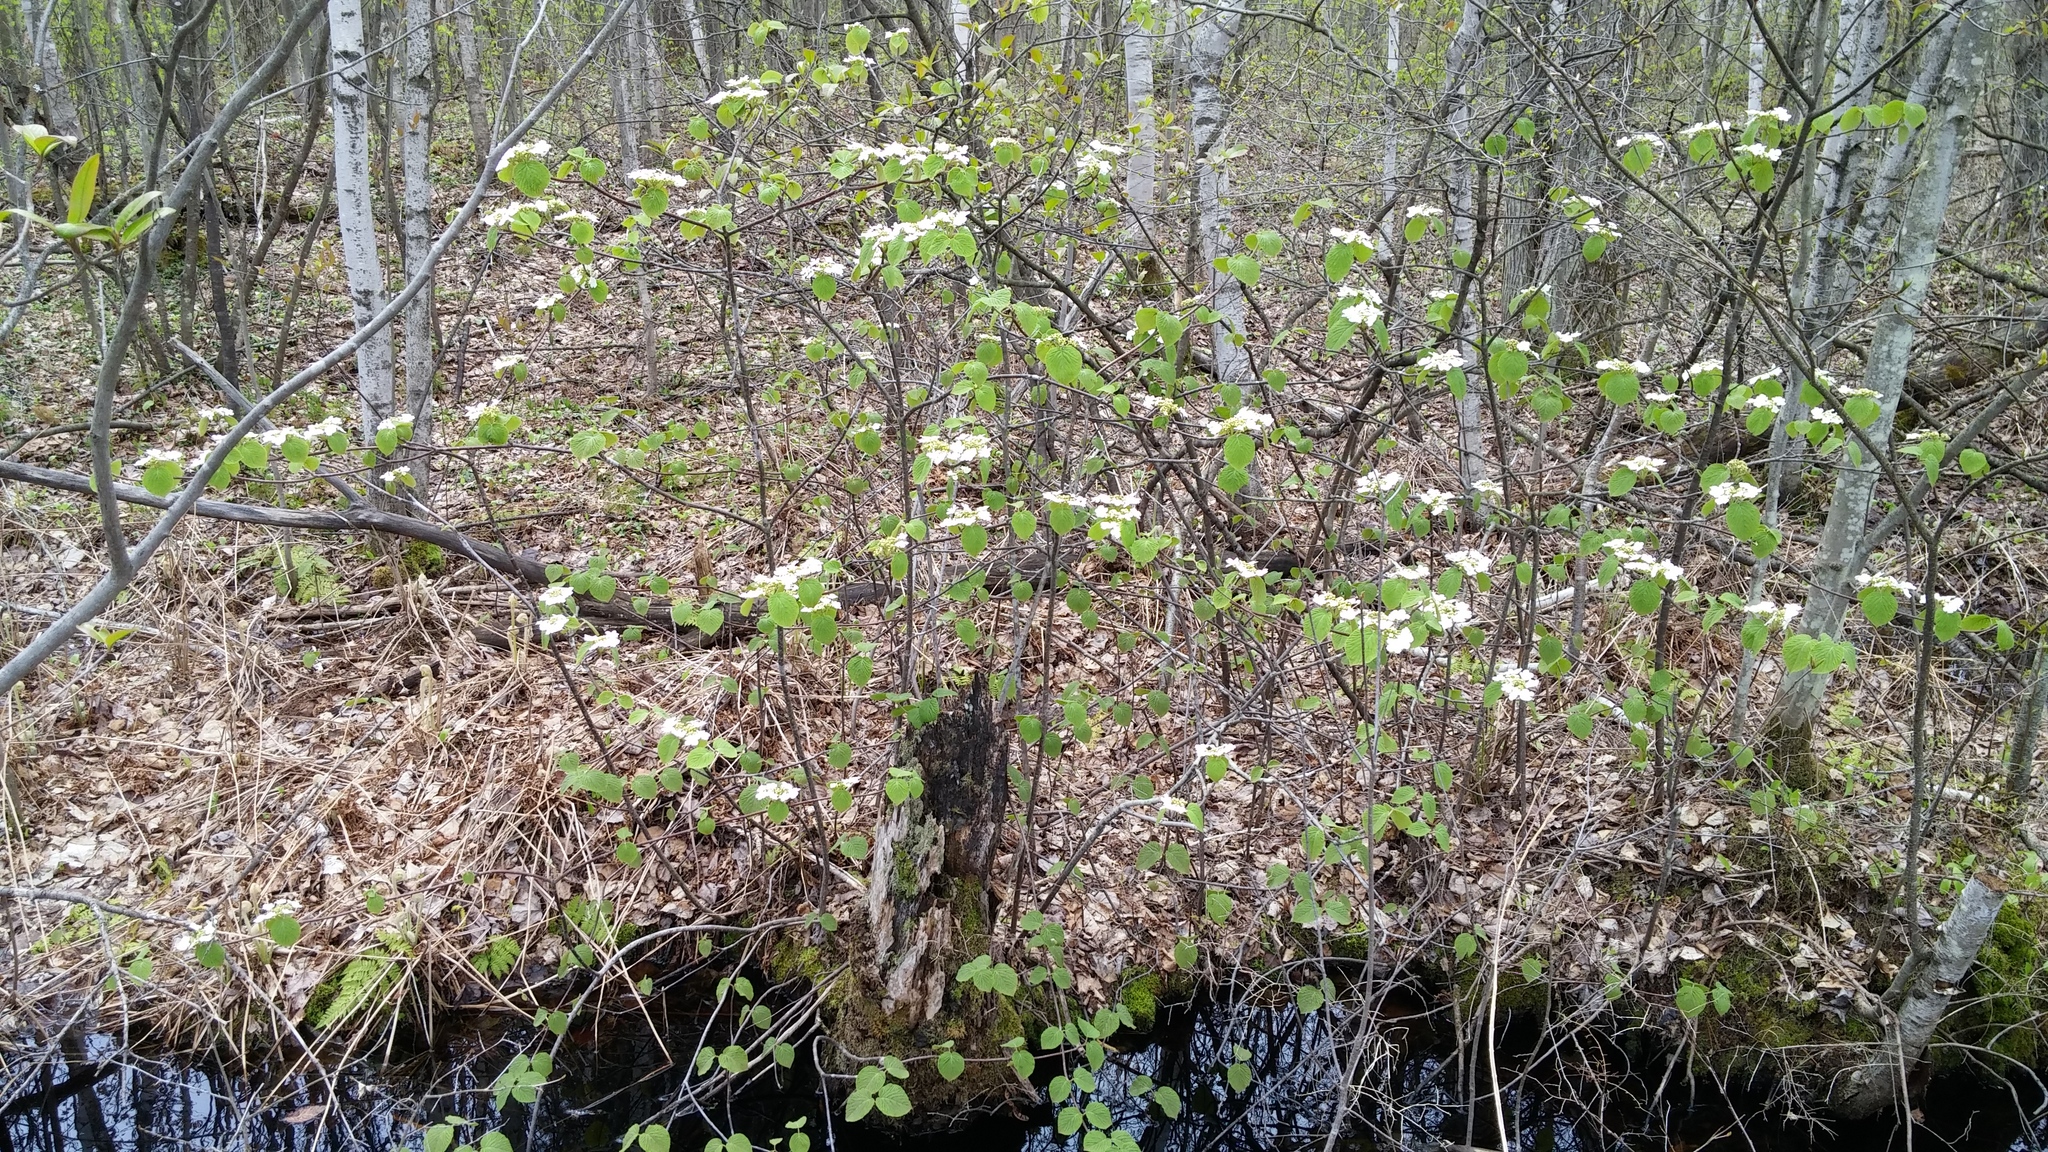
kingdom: Plantae
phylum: Tracheophyta
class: Magnoliopsida
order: Dipsacales
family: Viburnaceae
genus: Viburnum
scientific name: Viburnum lantanoides
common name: Hobblebush
